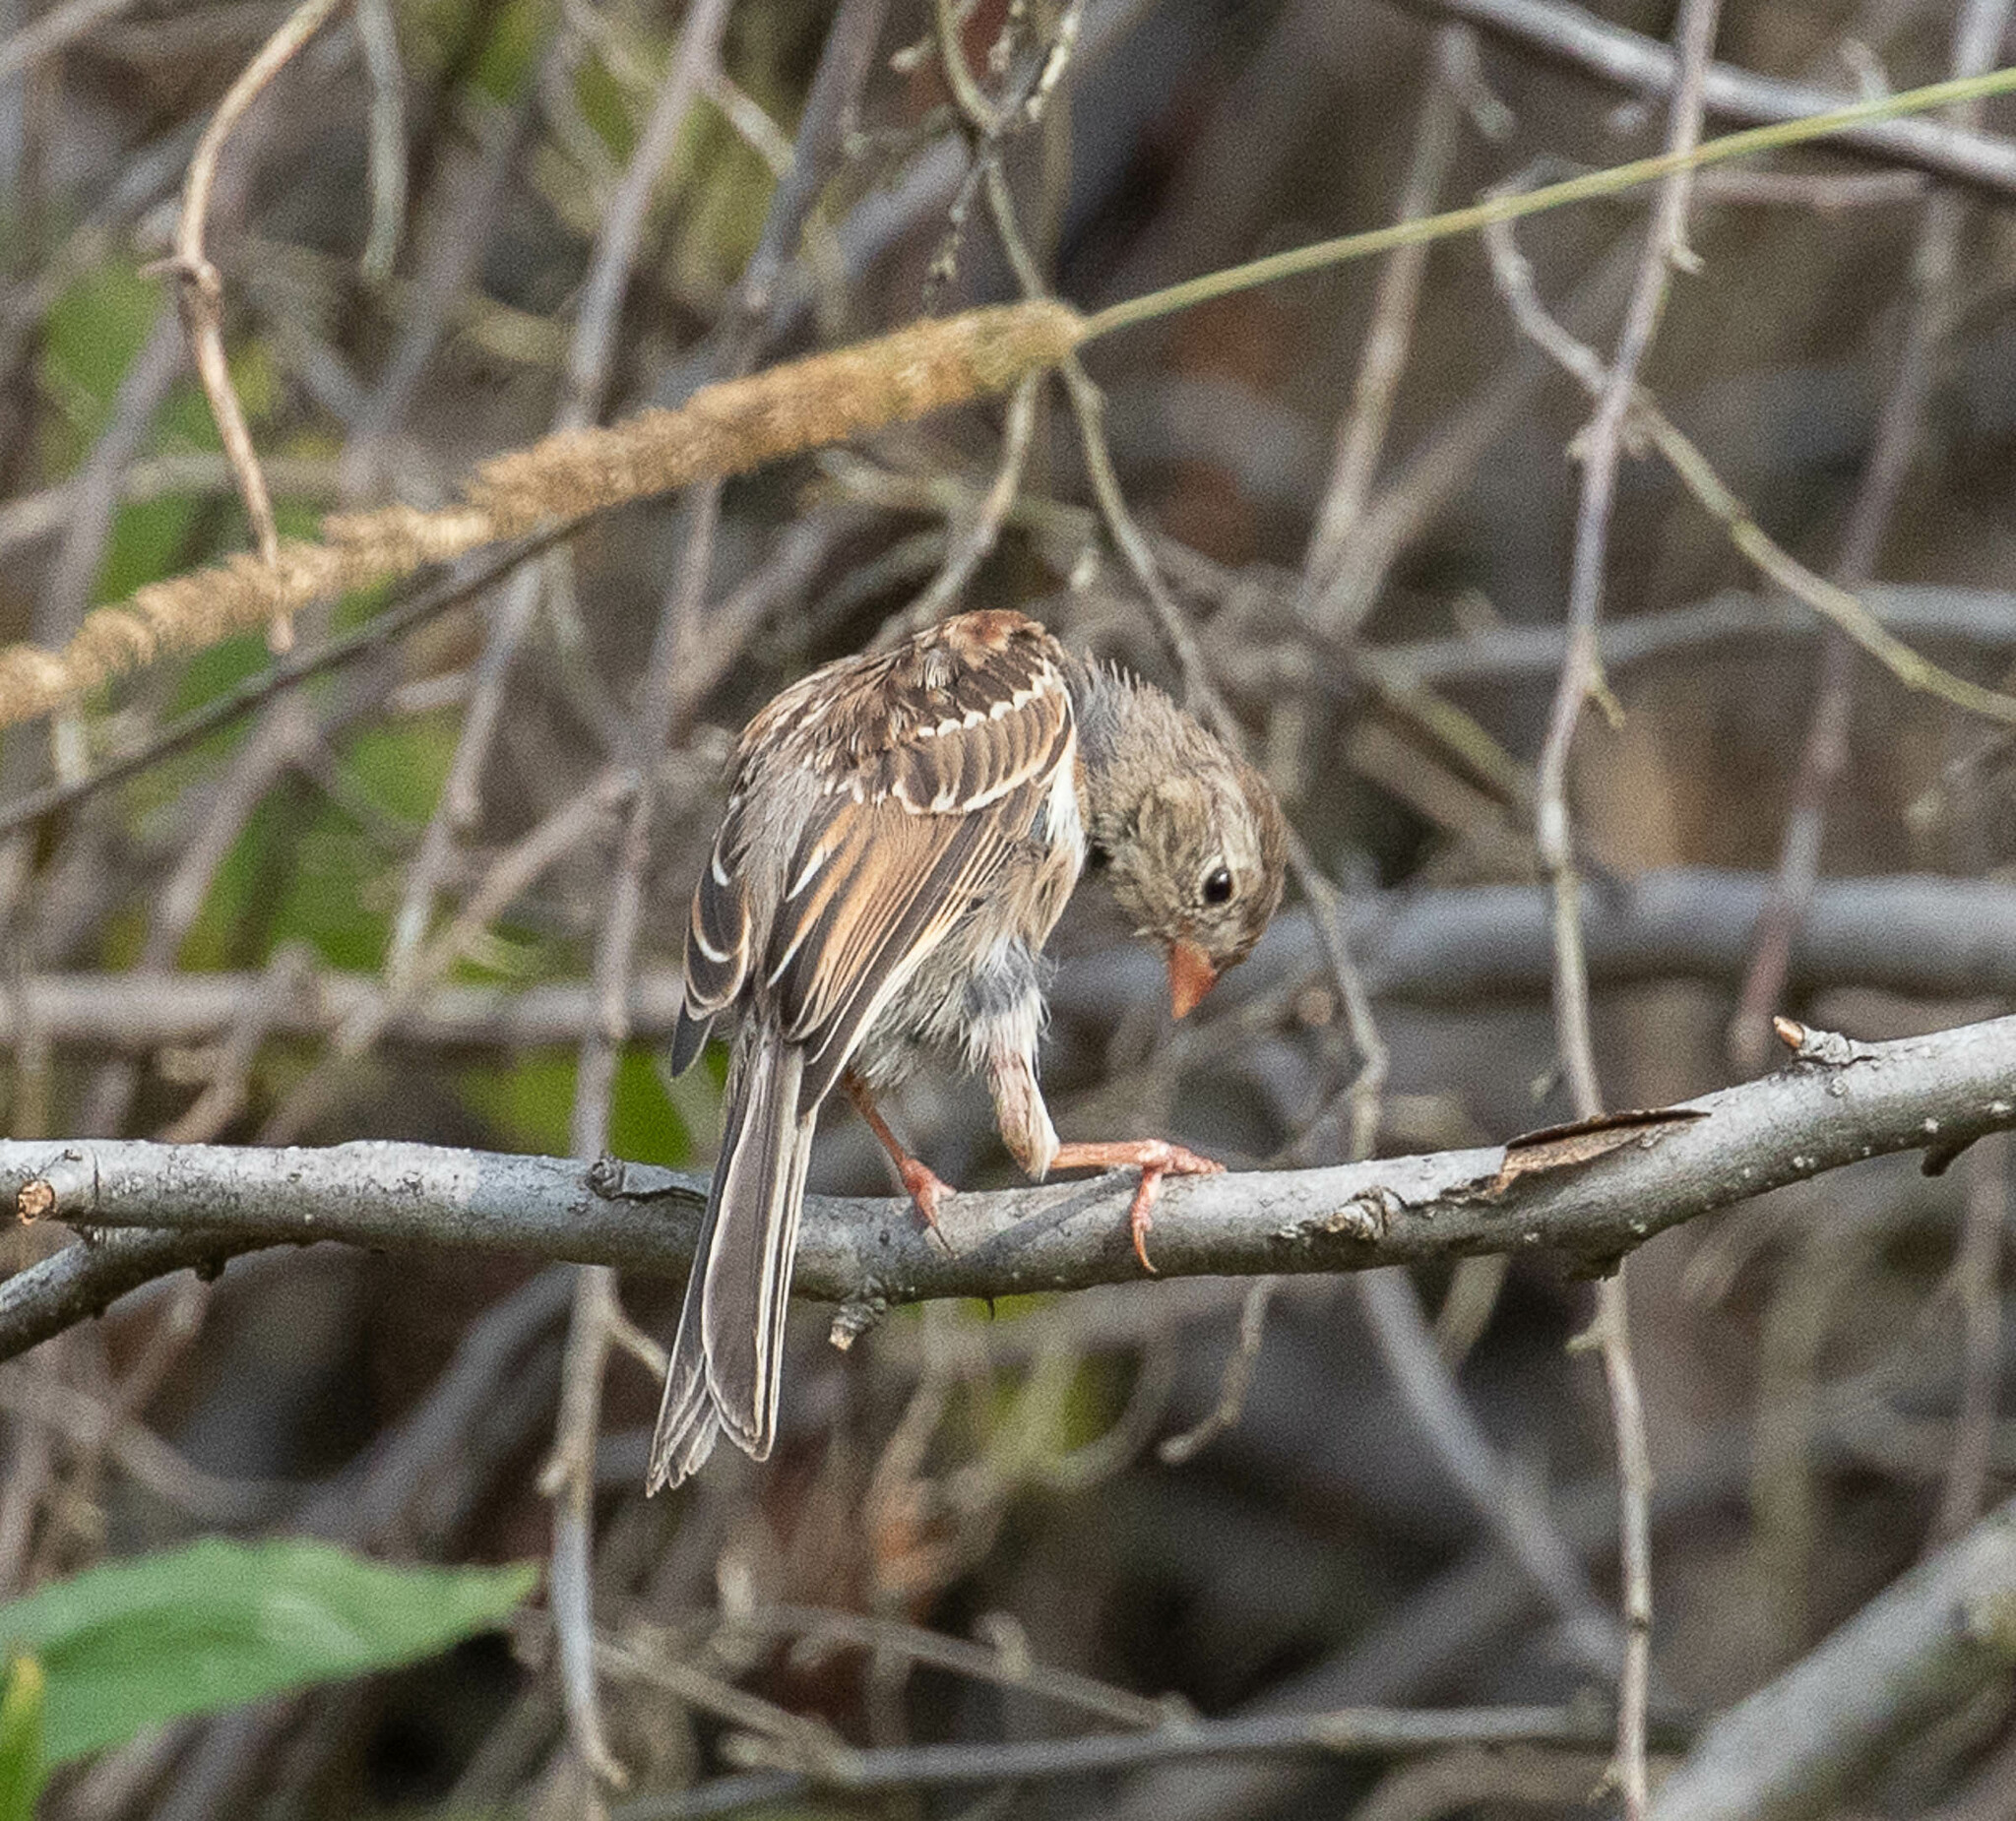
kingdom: Animalia
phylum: Chordata
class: Aves
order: Passeriformes
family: Passerellidae
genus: Spizella
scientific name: Spizella pusilla
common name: Field sparrow
